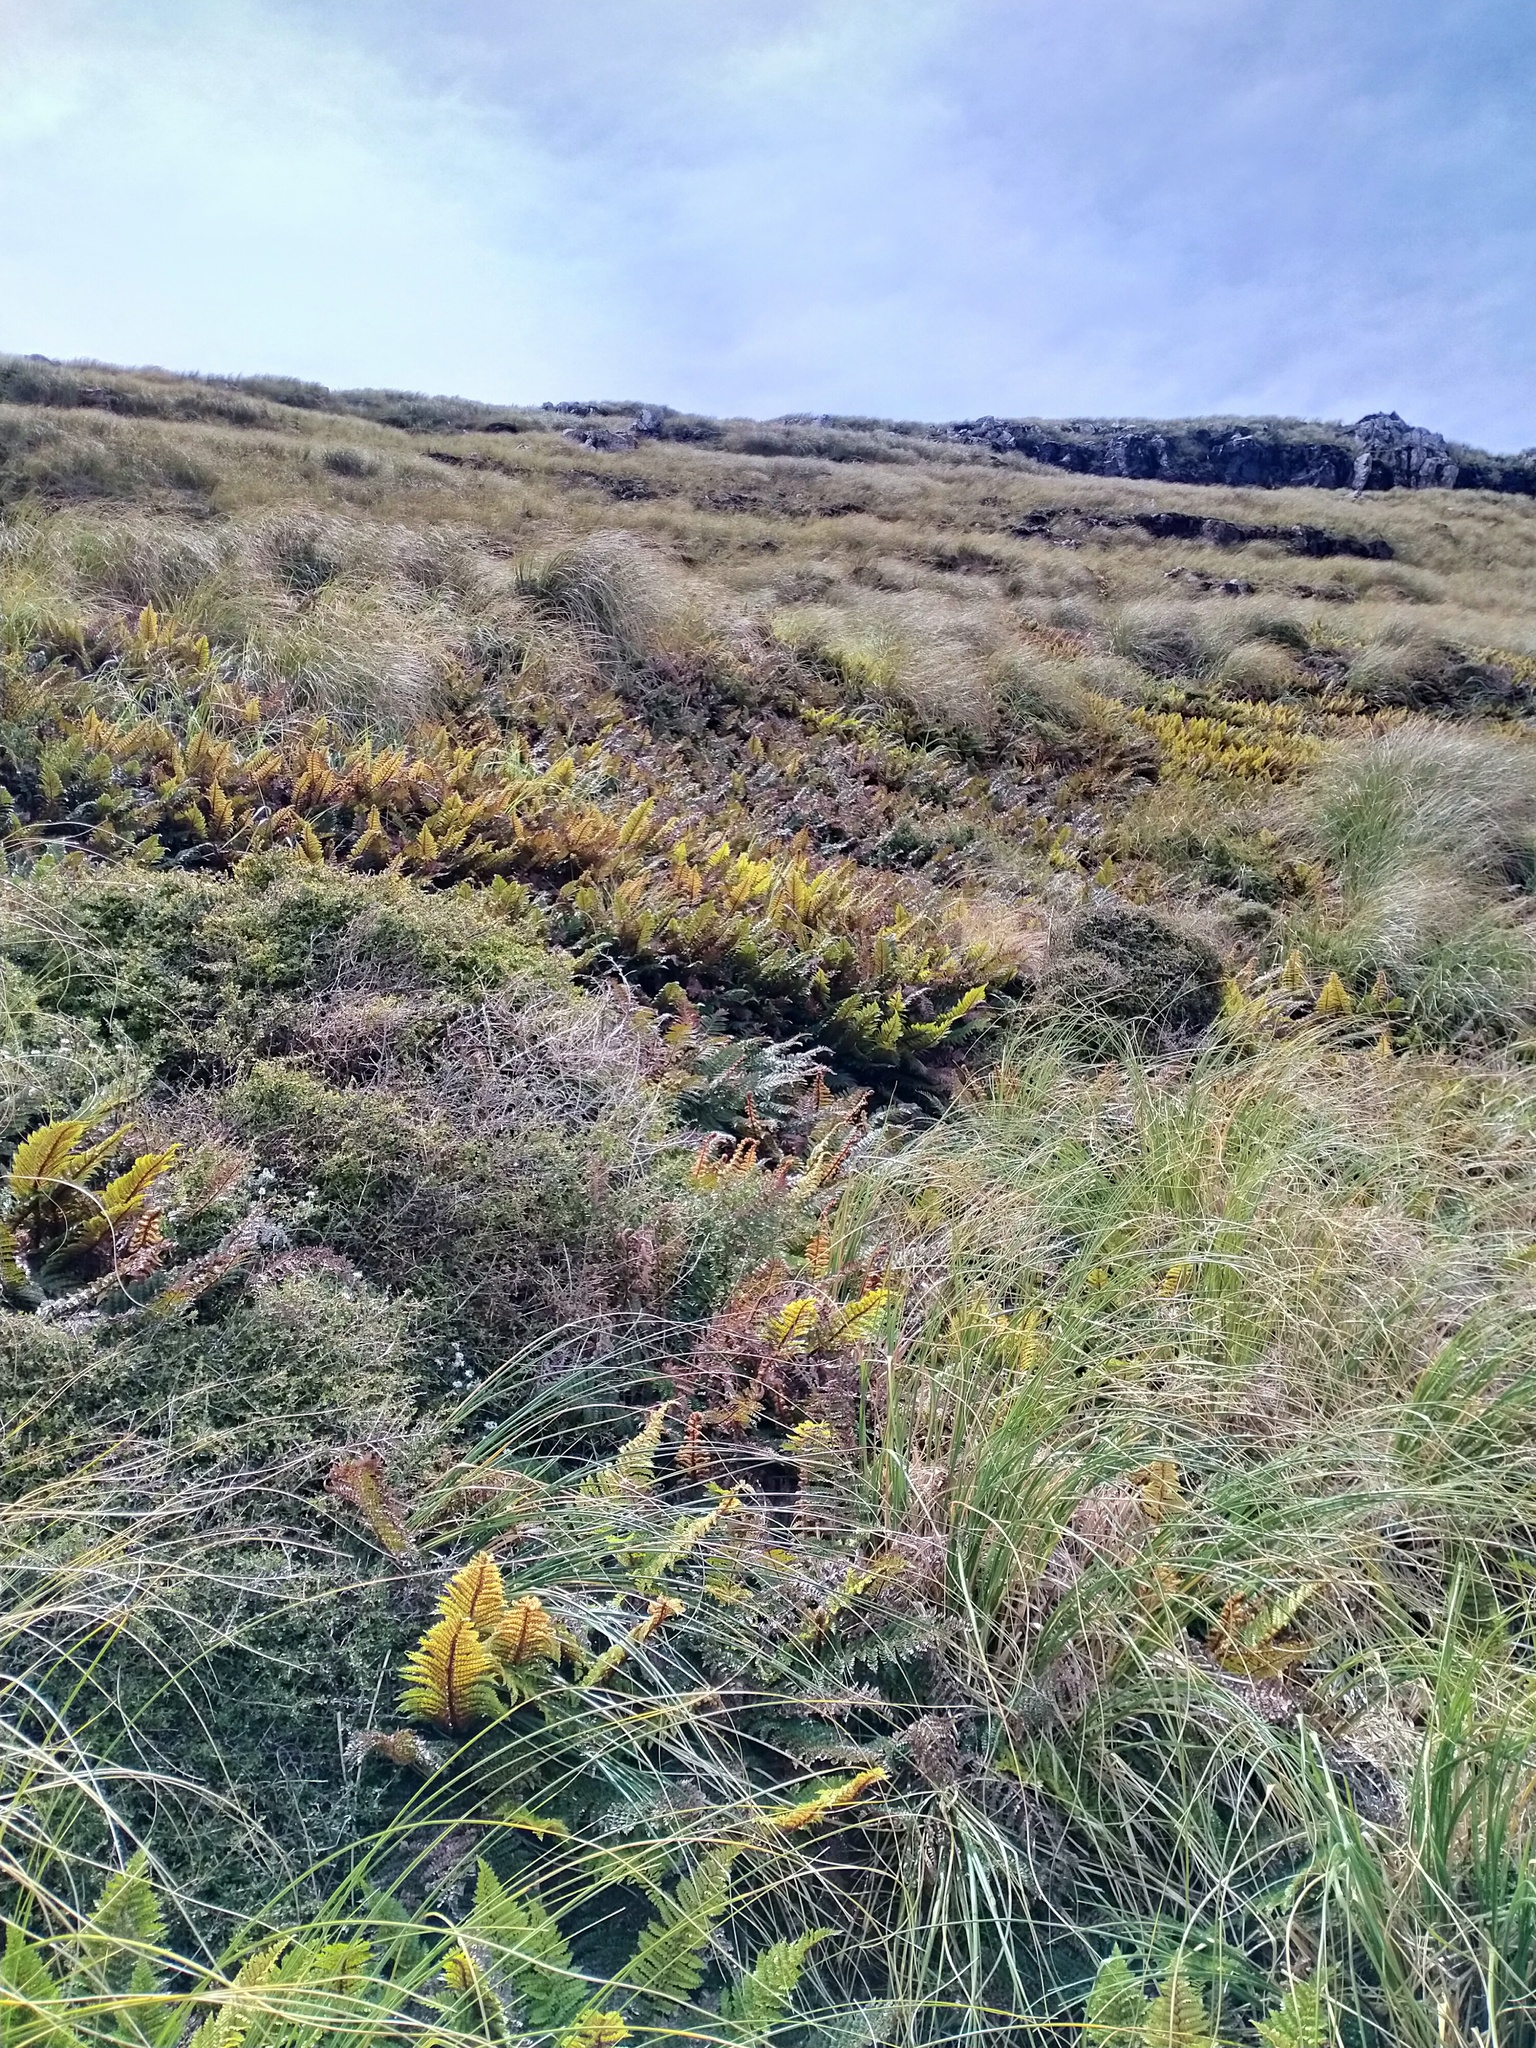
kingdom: Plantae
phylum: Tracheophyta
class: Polypodiopsida
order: Polypodiales
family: Dryopteridaceae
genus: Polystichum
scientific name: Polystichum vestitum
